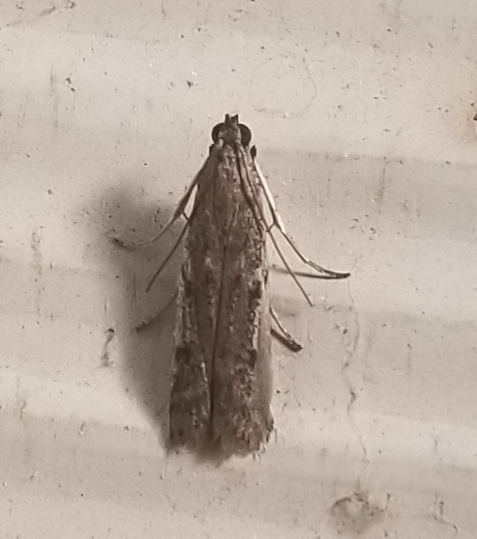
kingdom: Animalia
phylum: Arthropoda
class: Insecta
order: Lepidoptera
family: Pyralidae
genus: Phycitodes
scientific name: Phycitodes mucidellus
